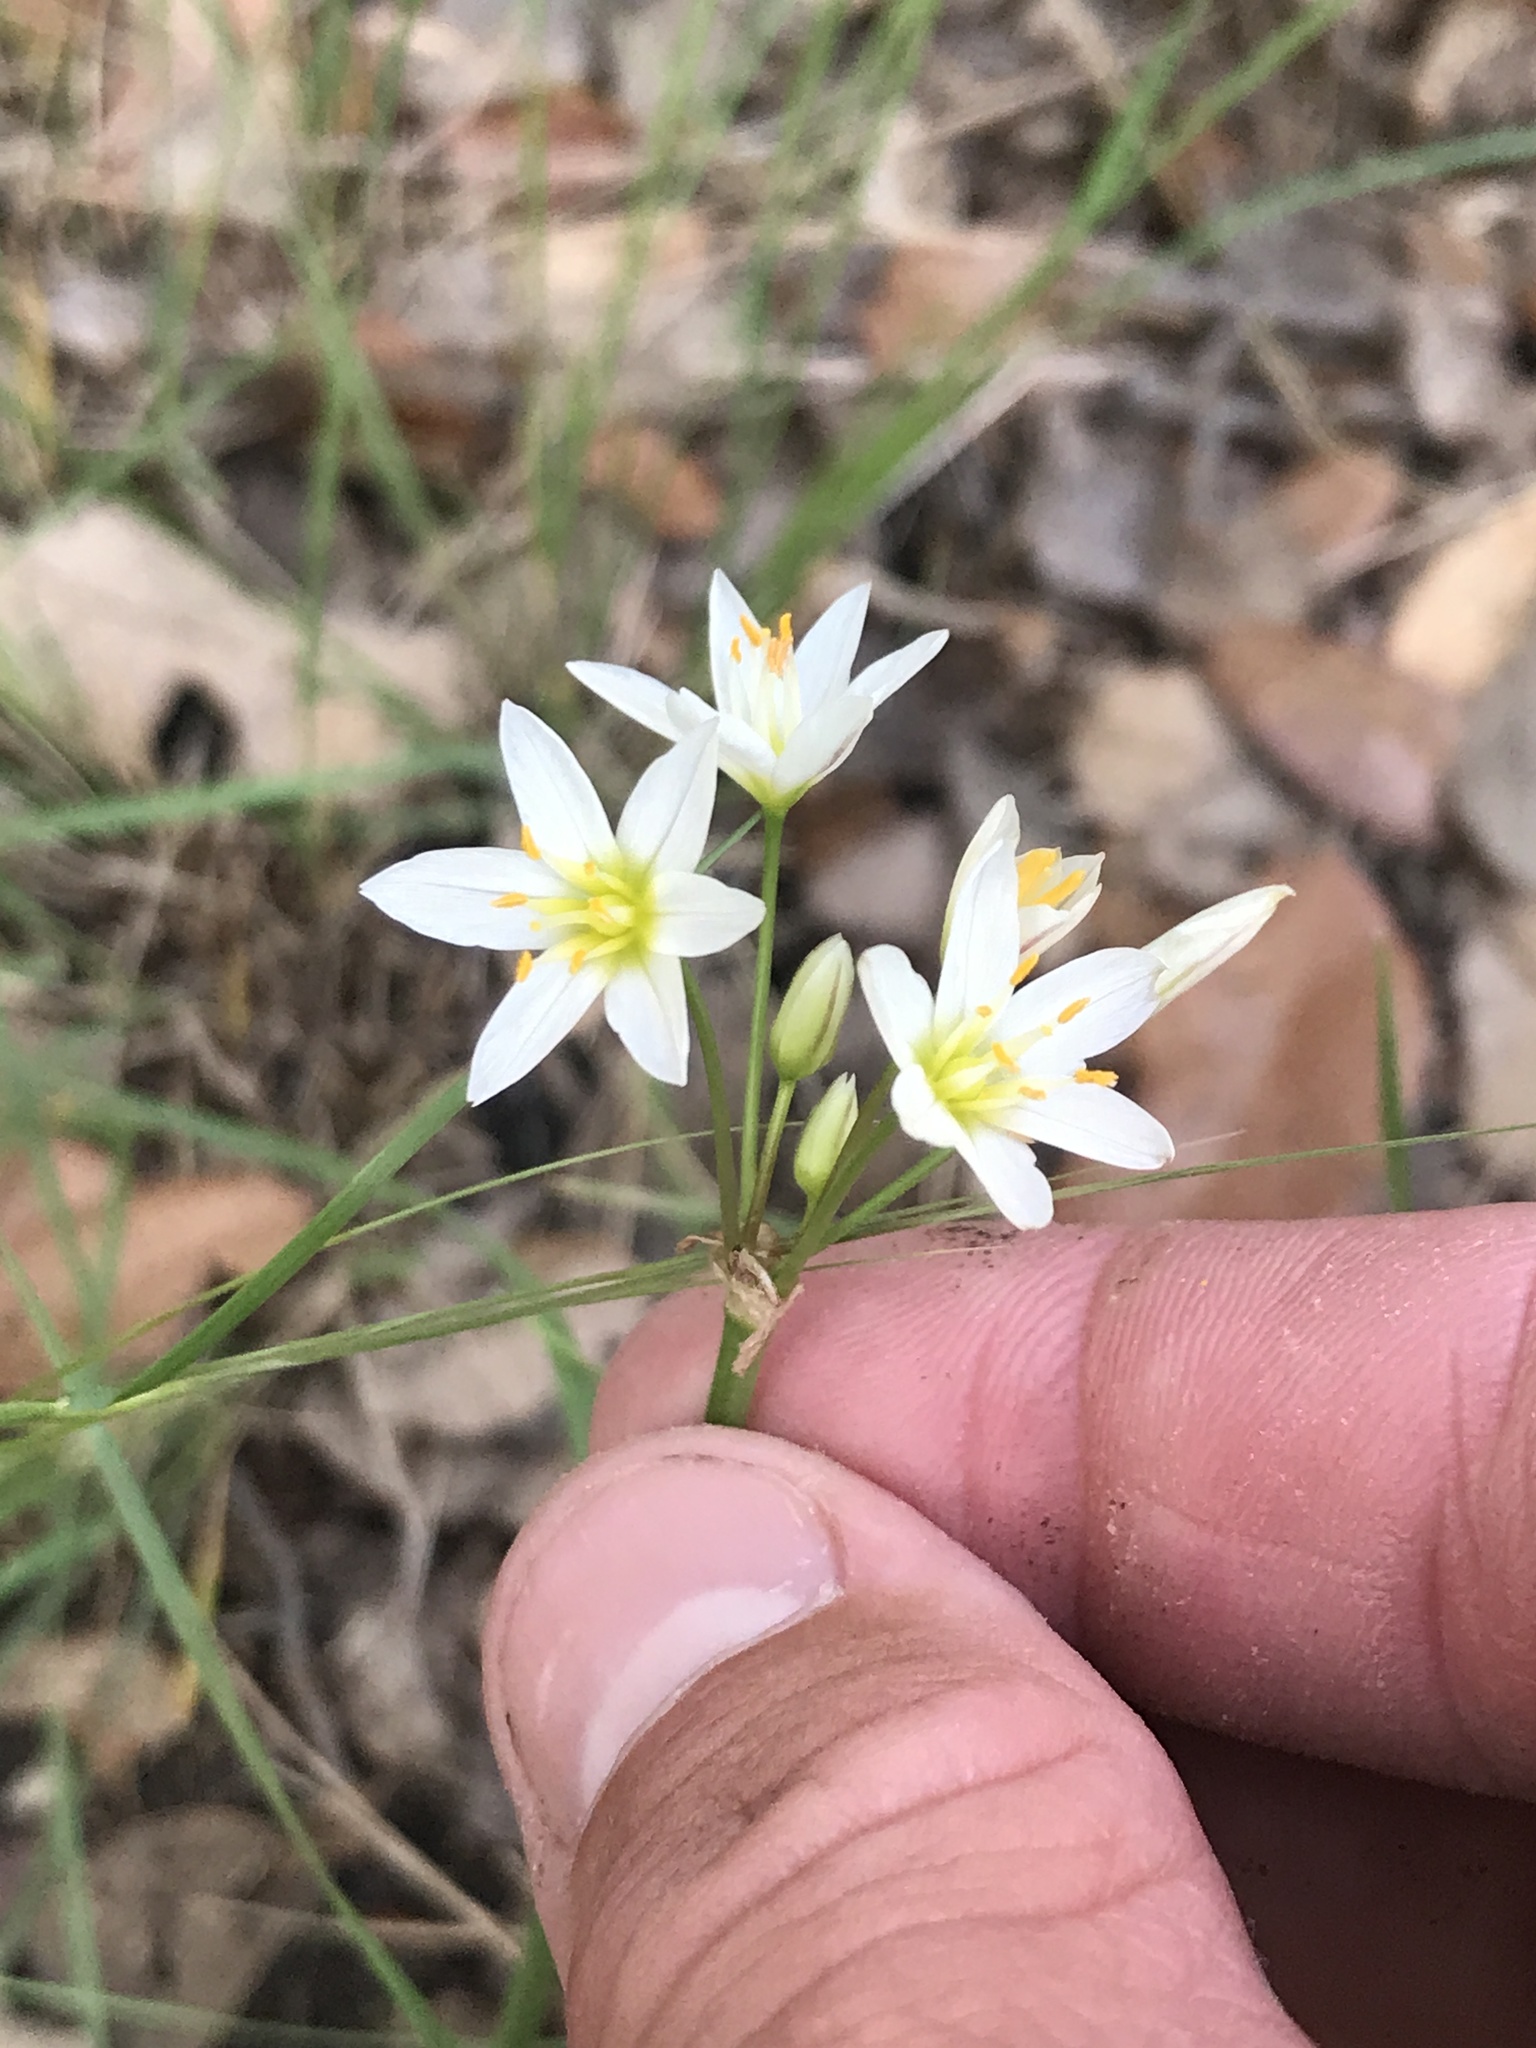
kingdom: Plantae
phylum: Tracheophyta
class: Liliopsida
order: Asparagales
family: Amaryllidaceae
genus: Nothoscordum
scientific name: Nothoscordum bivalve
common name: Crow-poison
